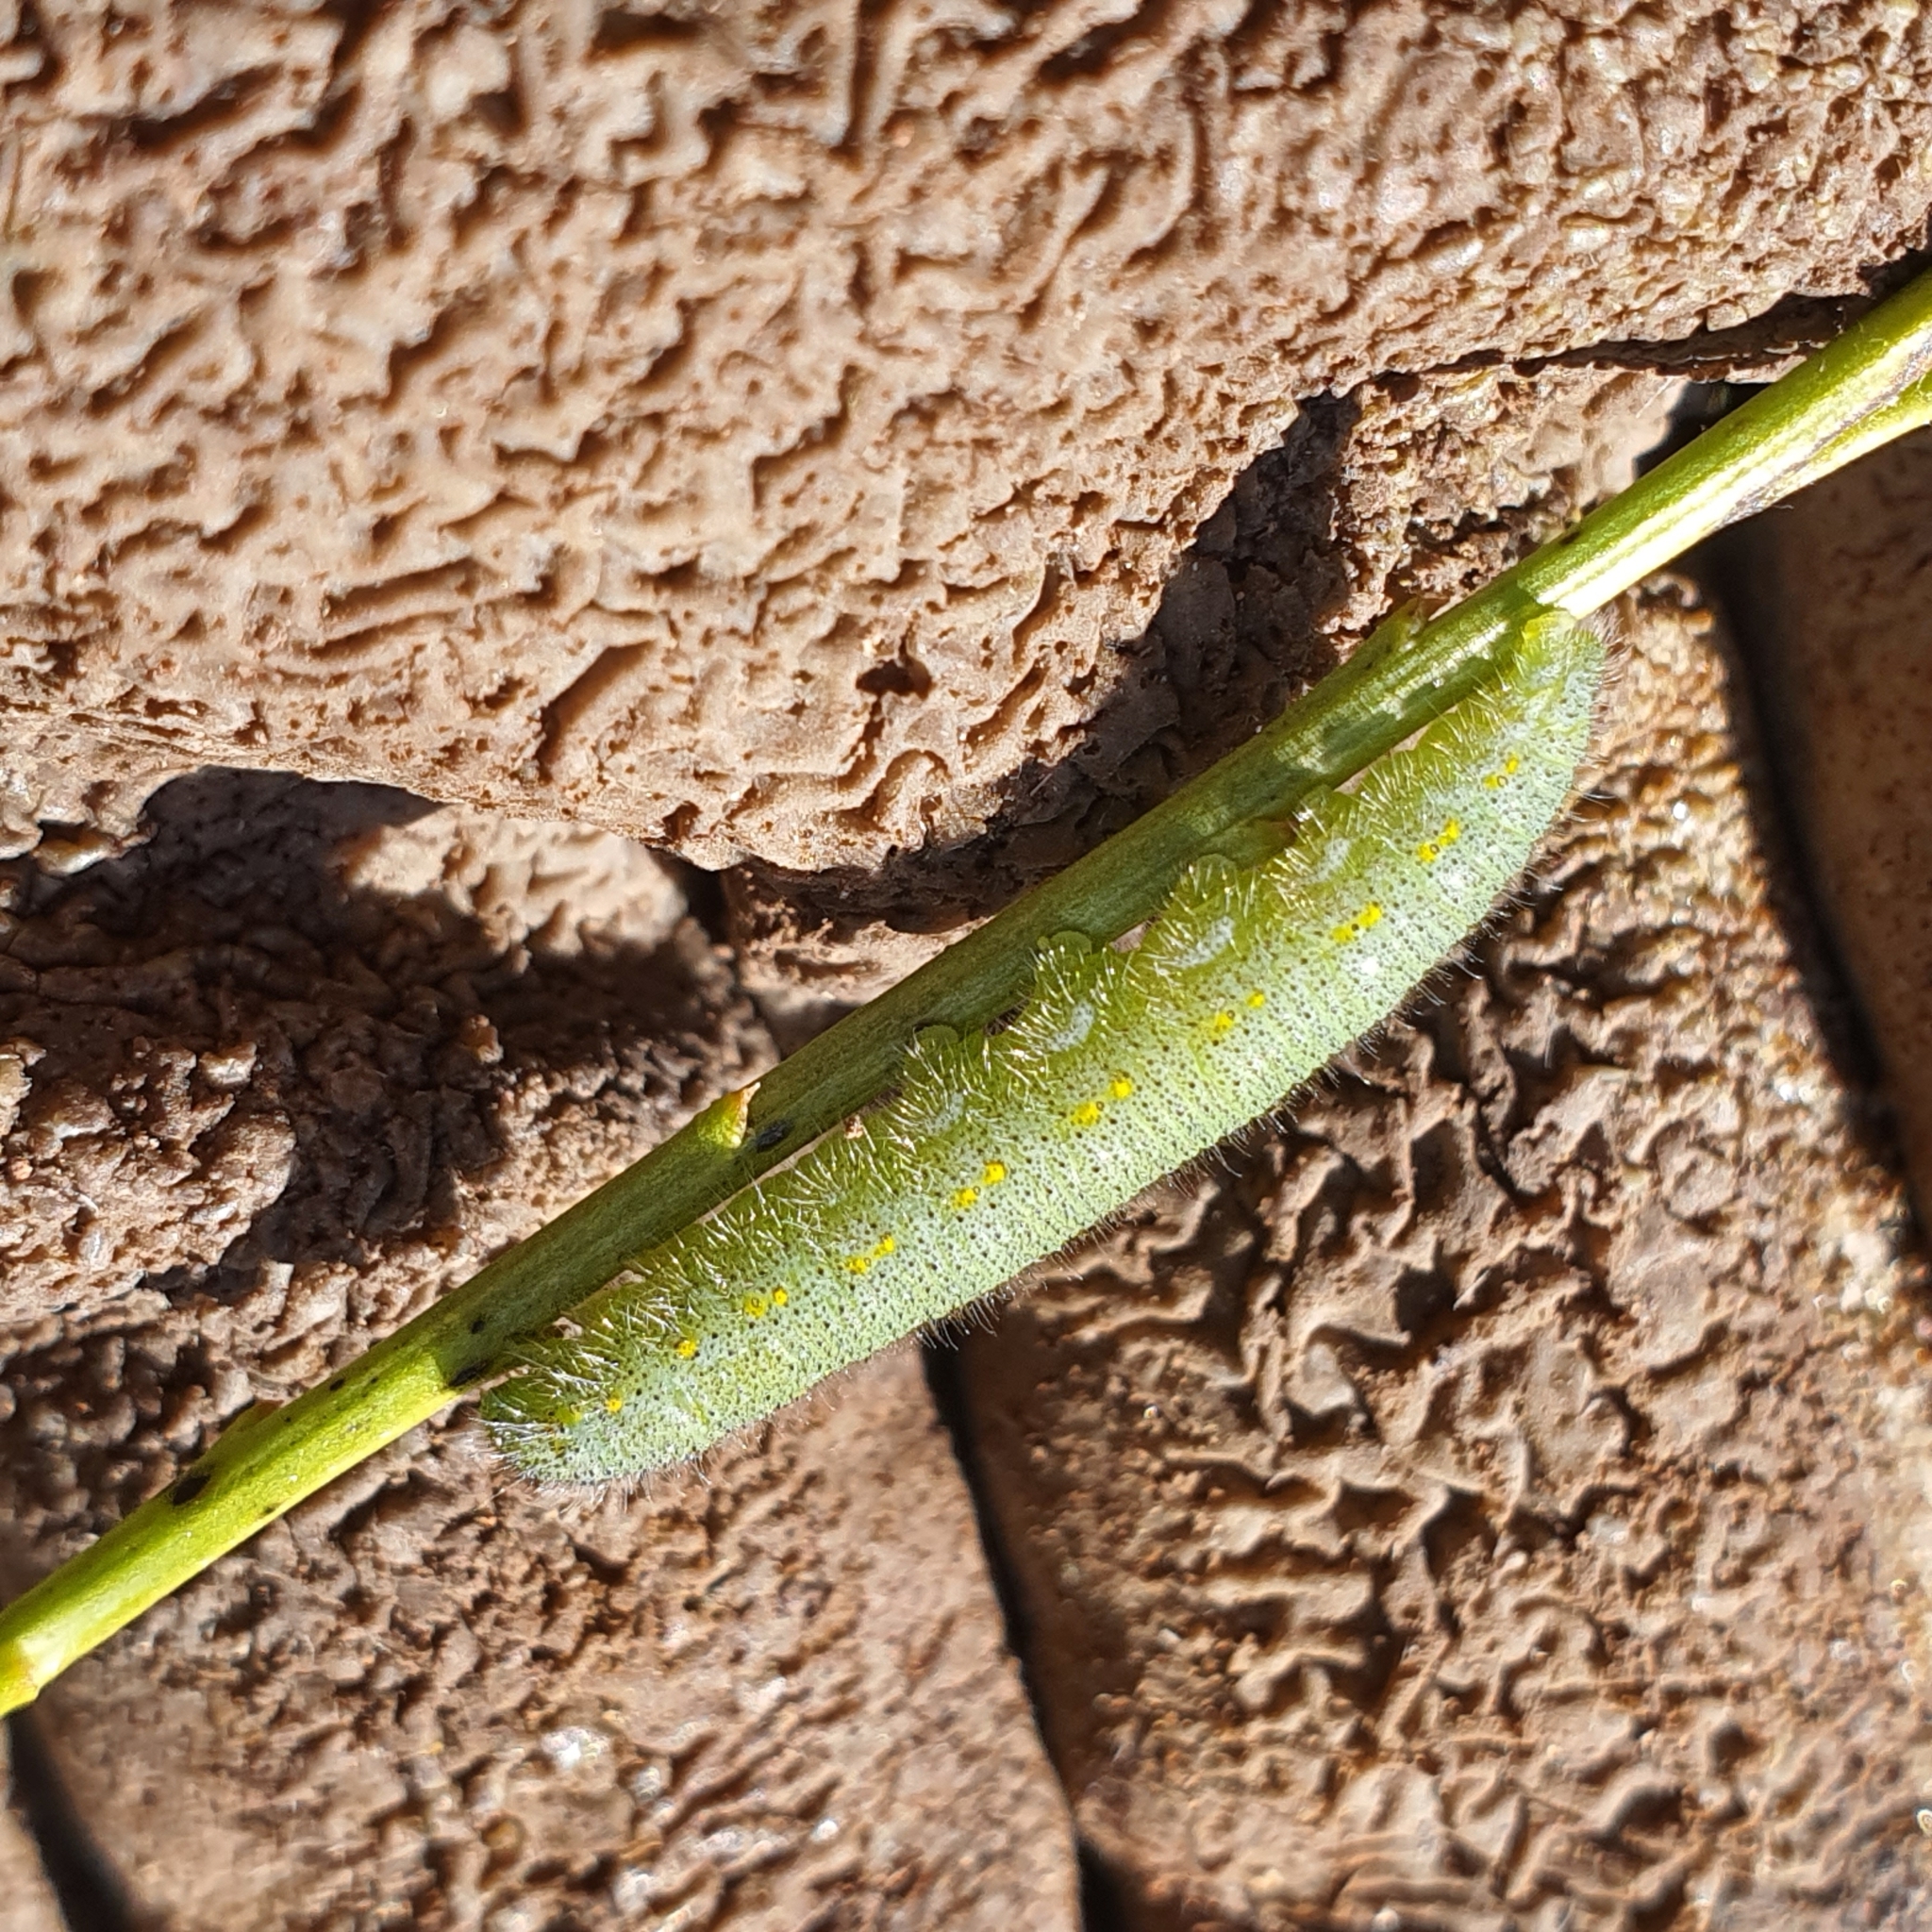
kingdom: Animalia
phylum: Arthropoda
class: Insecta
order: Lepidoptera
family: Pieridae
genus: Pieris
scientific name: Pieris rapae
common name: Small white
